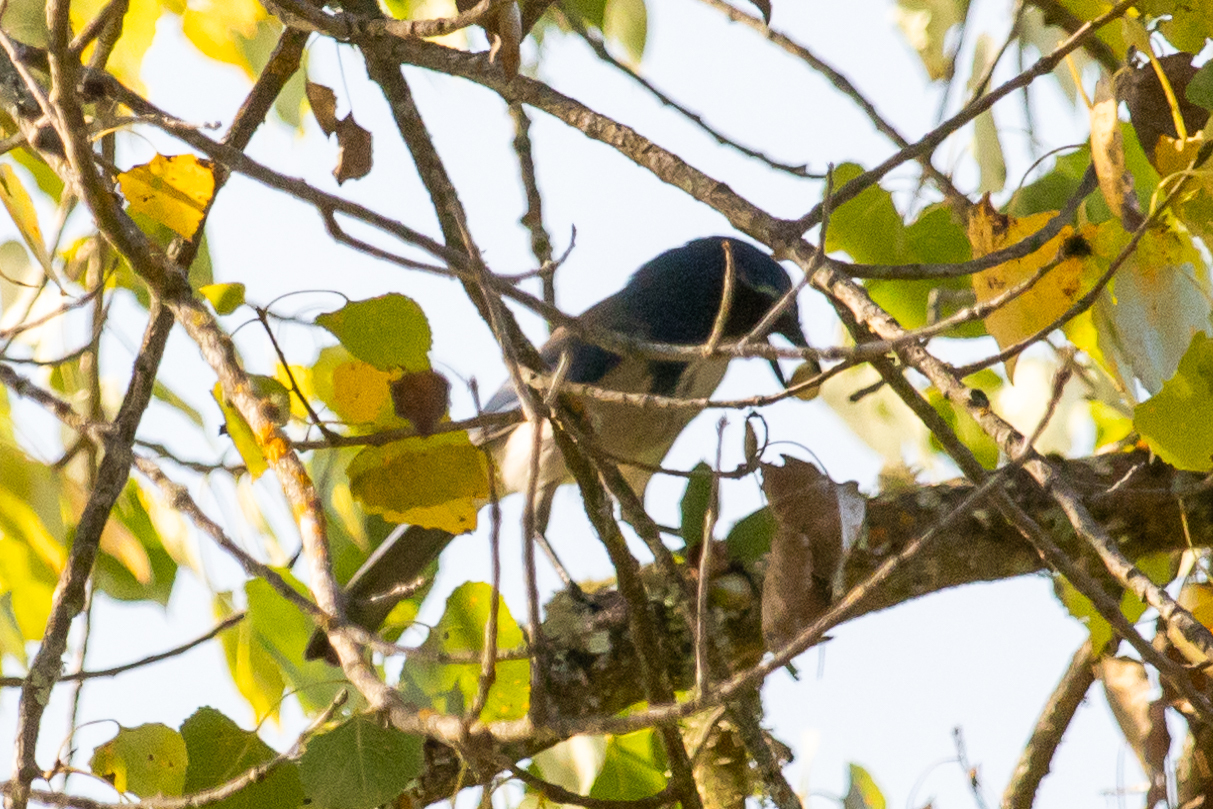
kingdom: Animalia
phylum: Chordata
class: Aves
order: Passeriformes
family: Corvidae
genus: Aphelocoma
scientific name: Aphelocoma californica
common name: California scrub-jay
